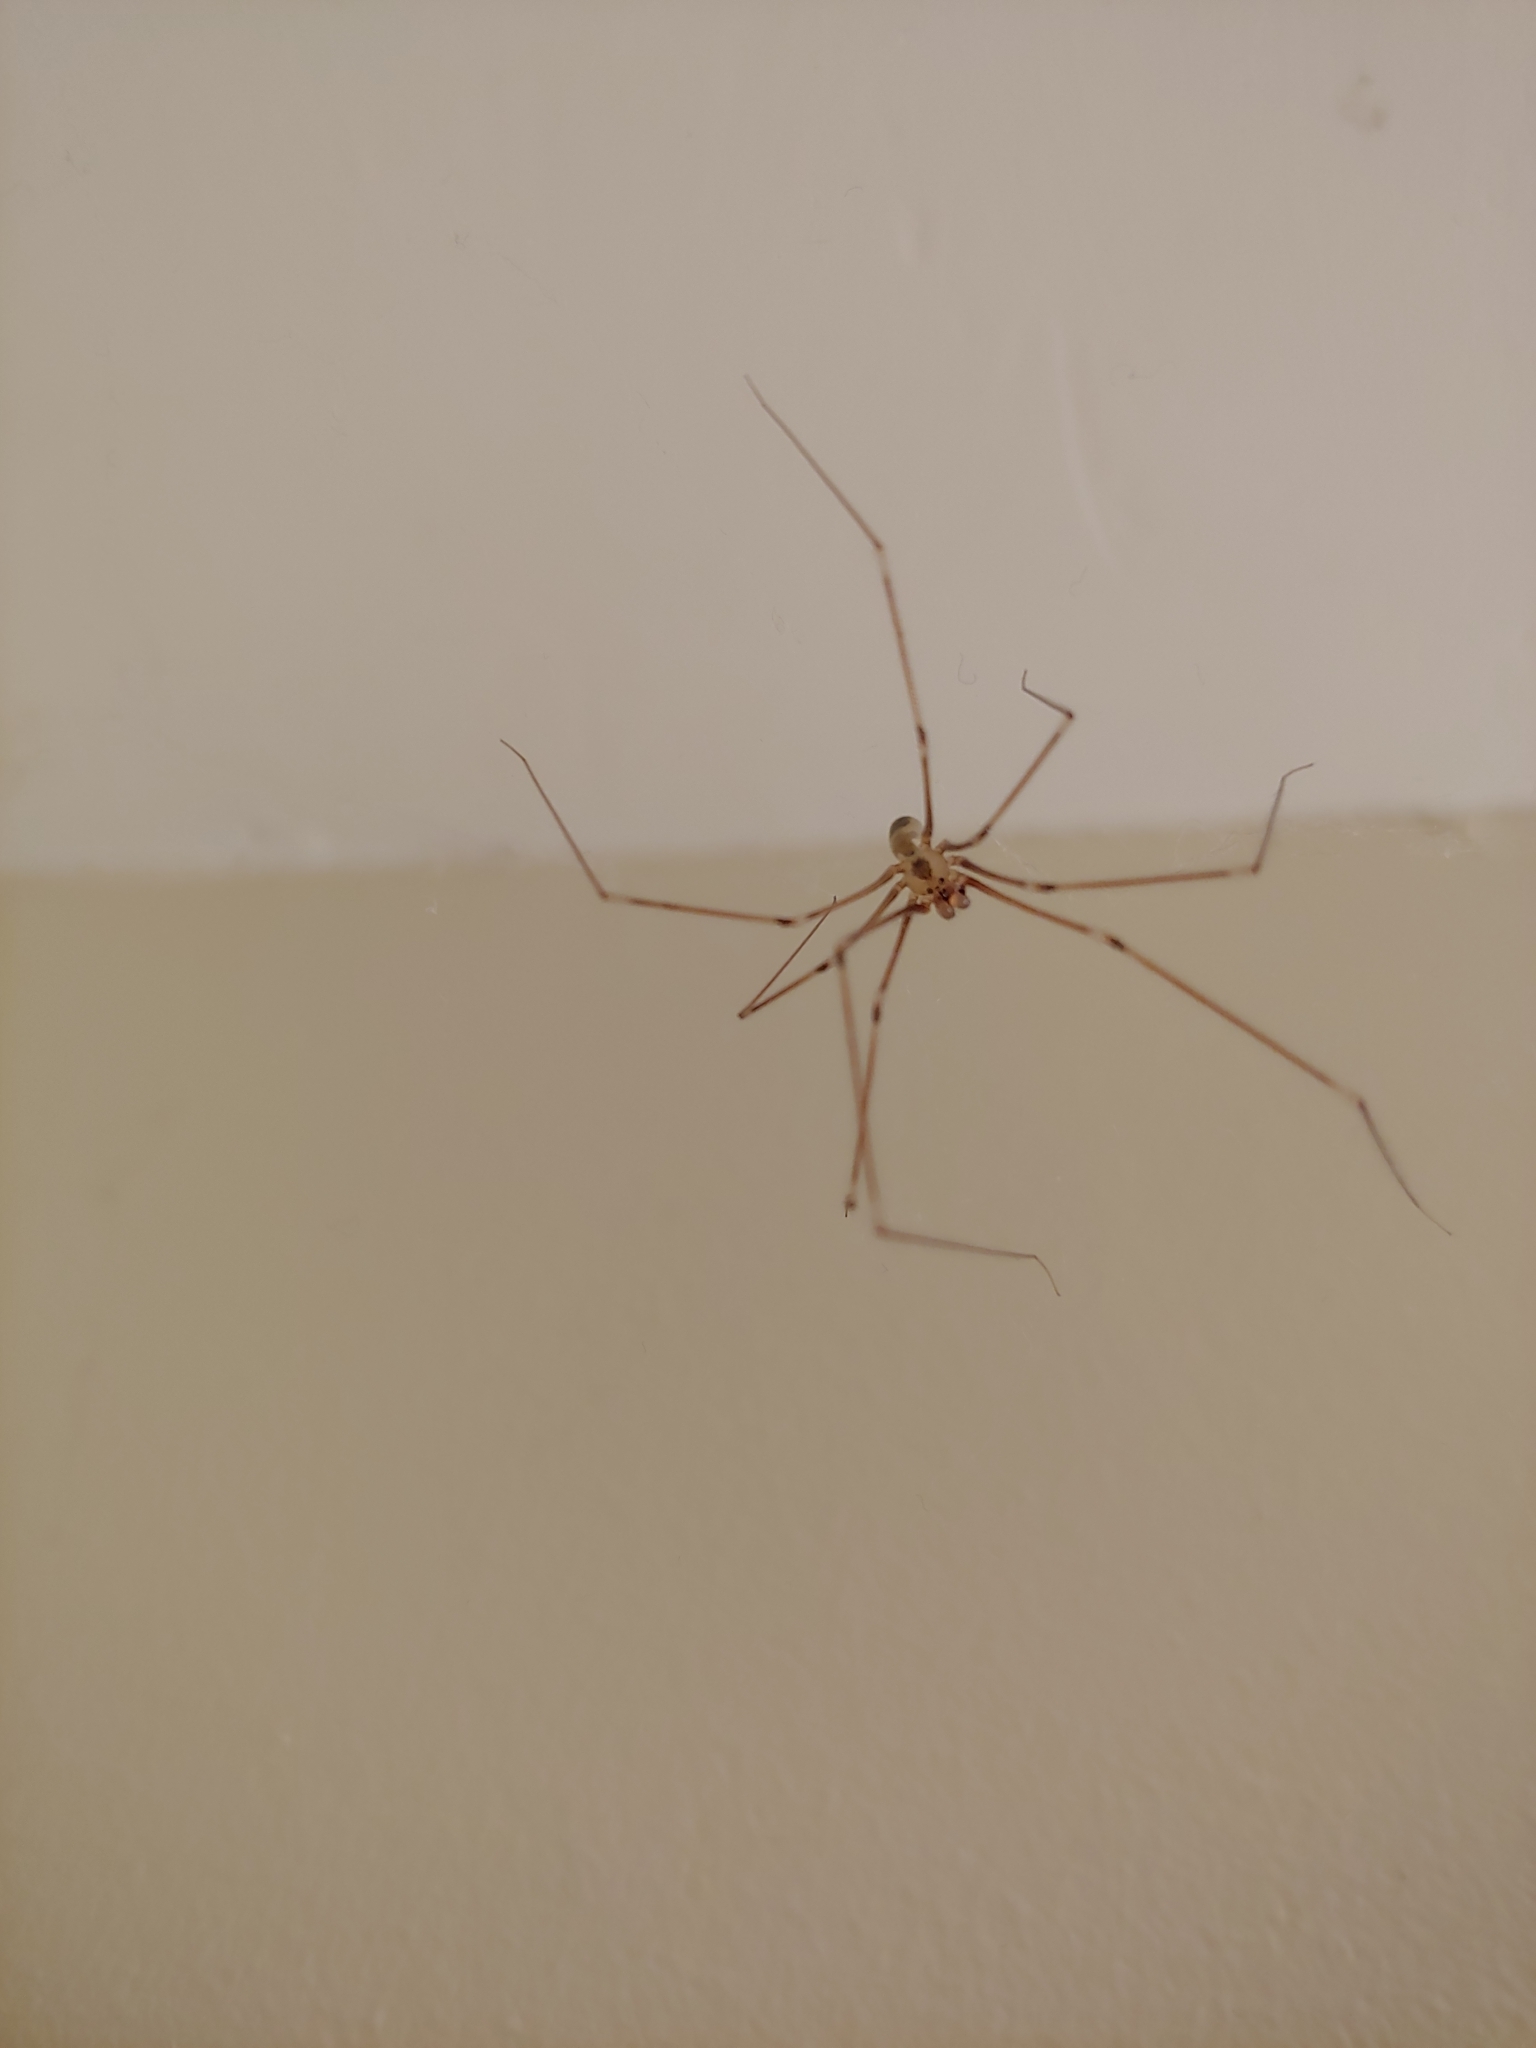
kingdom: Animalia
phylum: Arthropoda
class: Arachnida
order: Araneae
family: Pholcidae
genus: Pholcus
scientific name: Pholcus phalangioides
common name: Longbodied cellar spider
